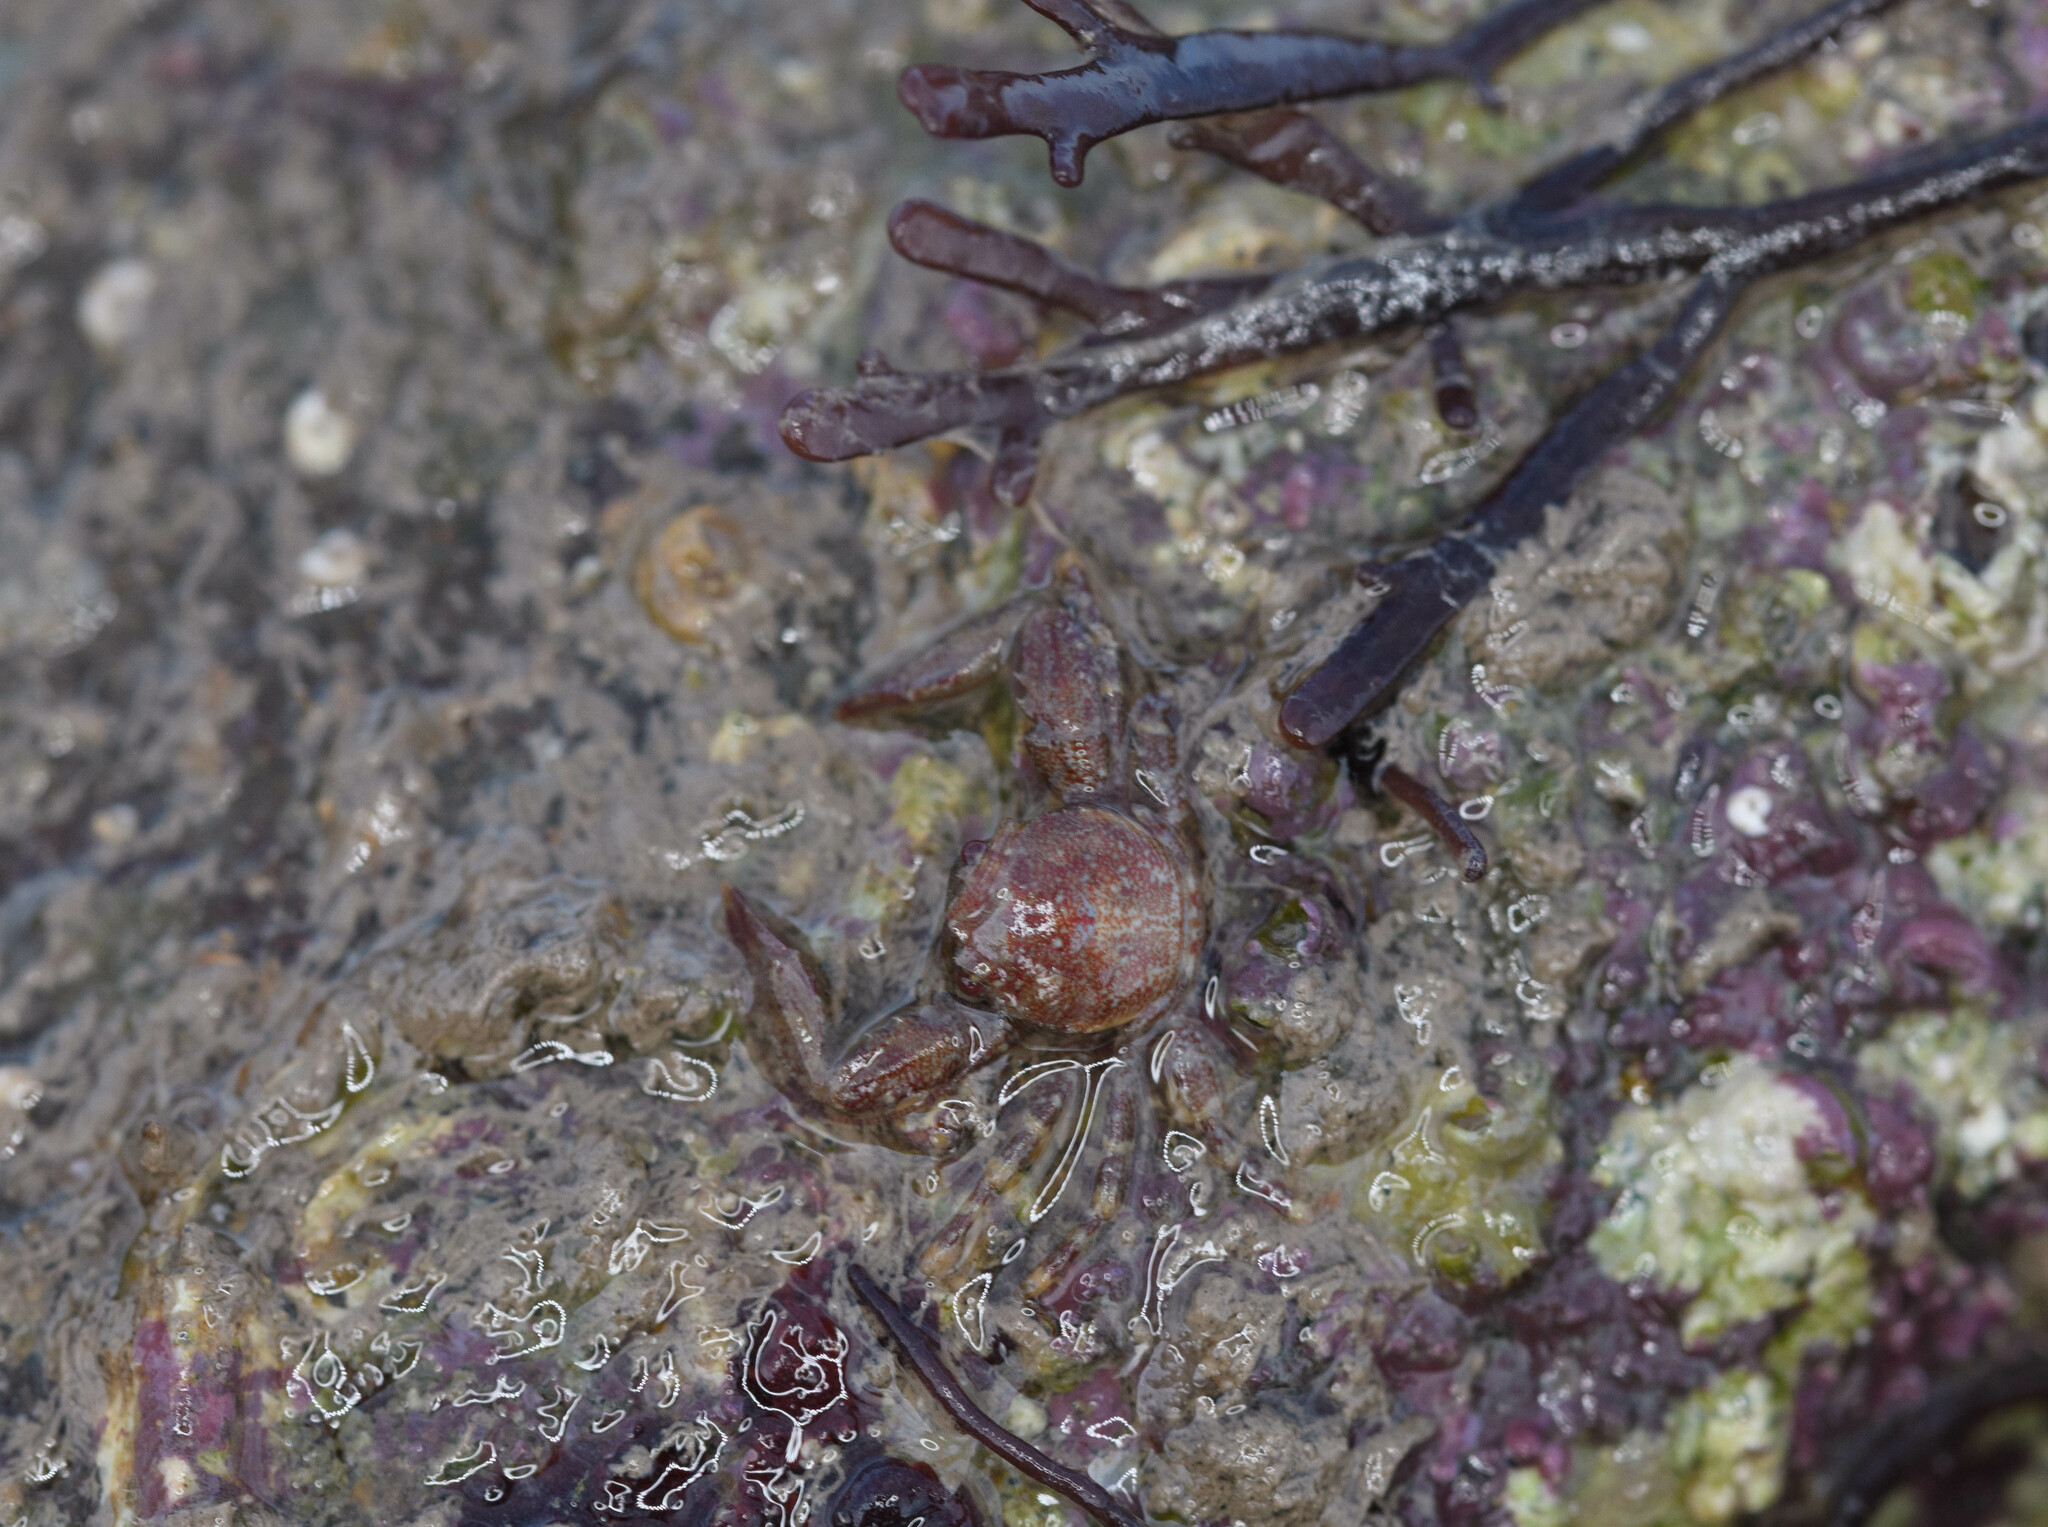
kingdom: Animalia
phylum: Arthropoda
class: Malacostraca
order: Decapoda
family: Porcellanidae
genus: Pisidia
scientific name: Pisidia longicornis
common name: Long clawed porcelain crab
